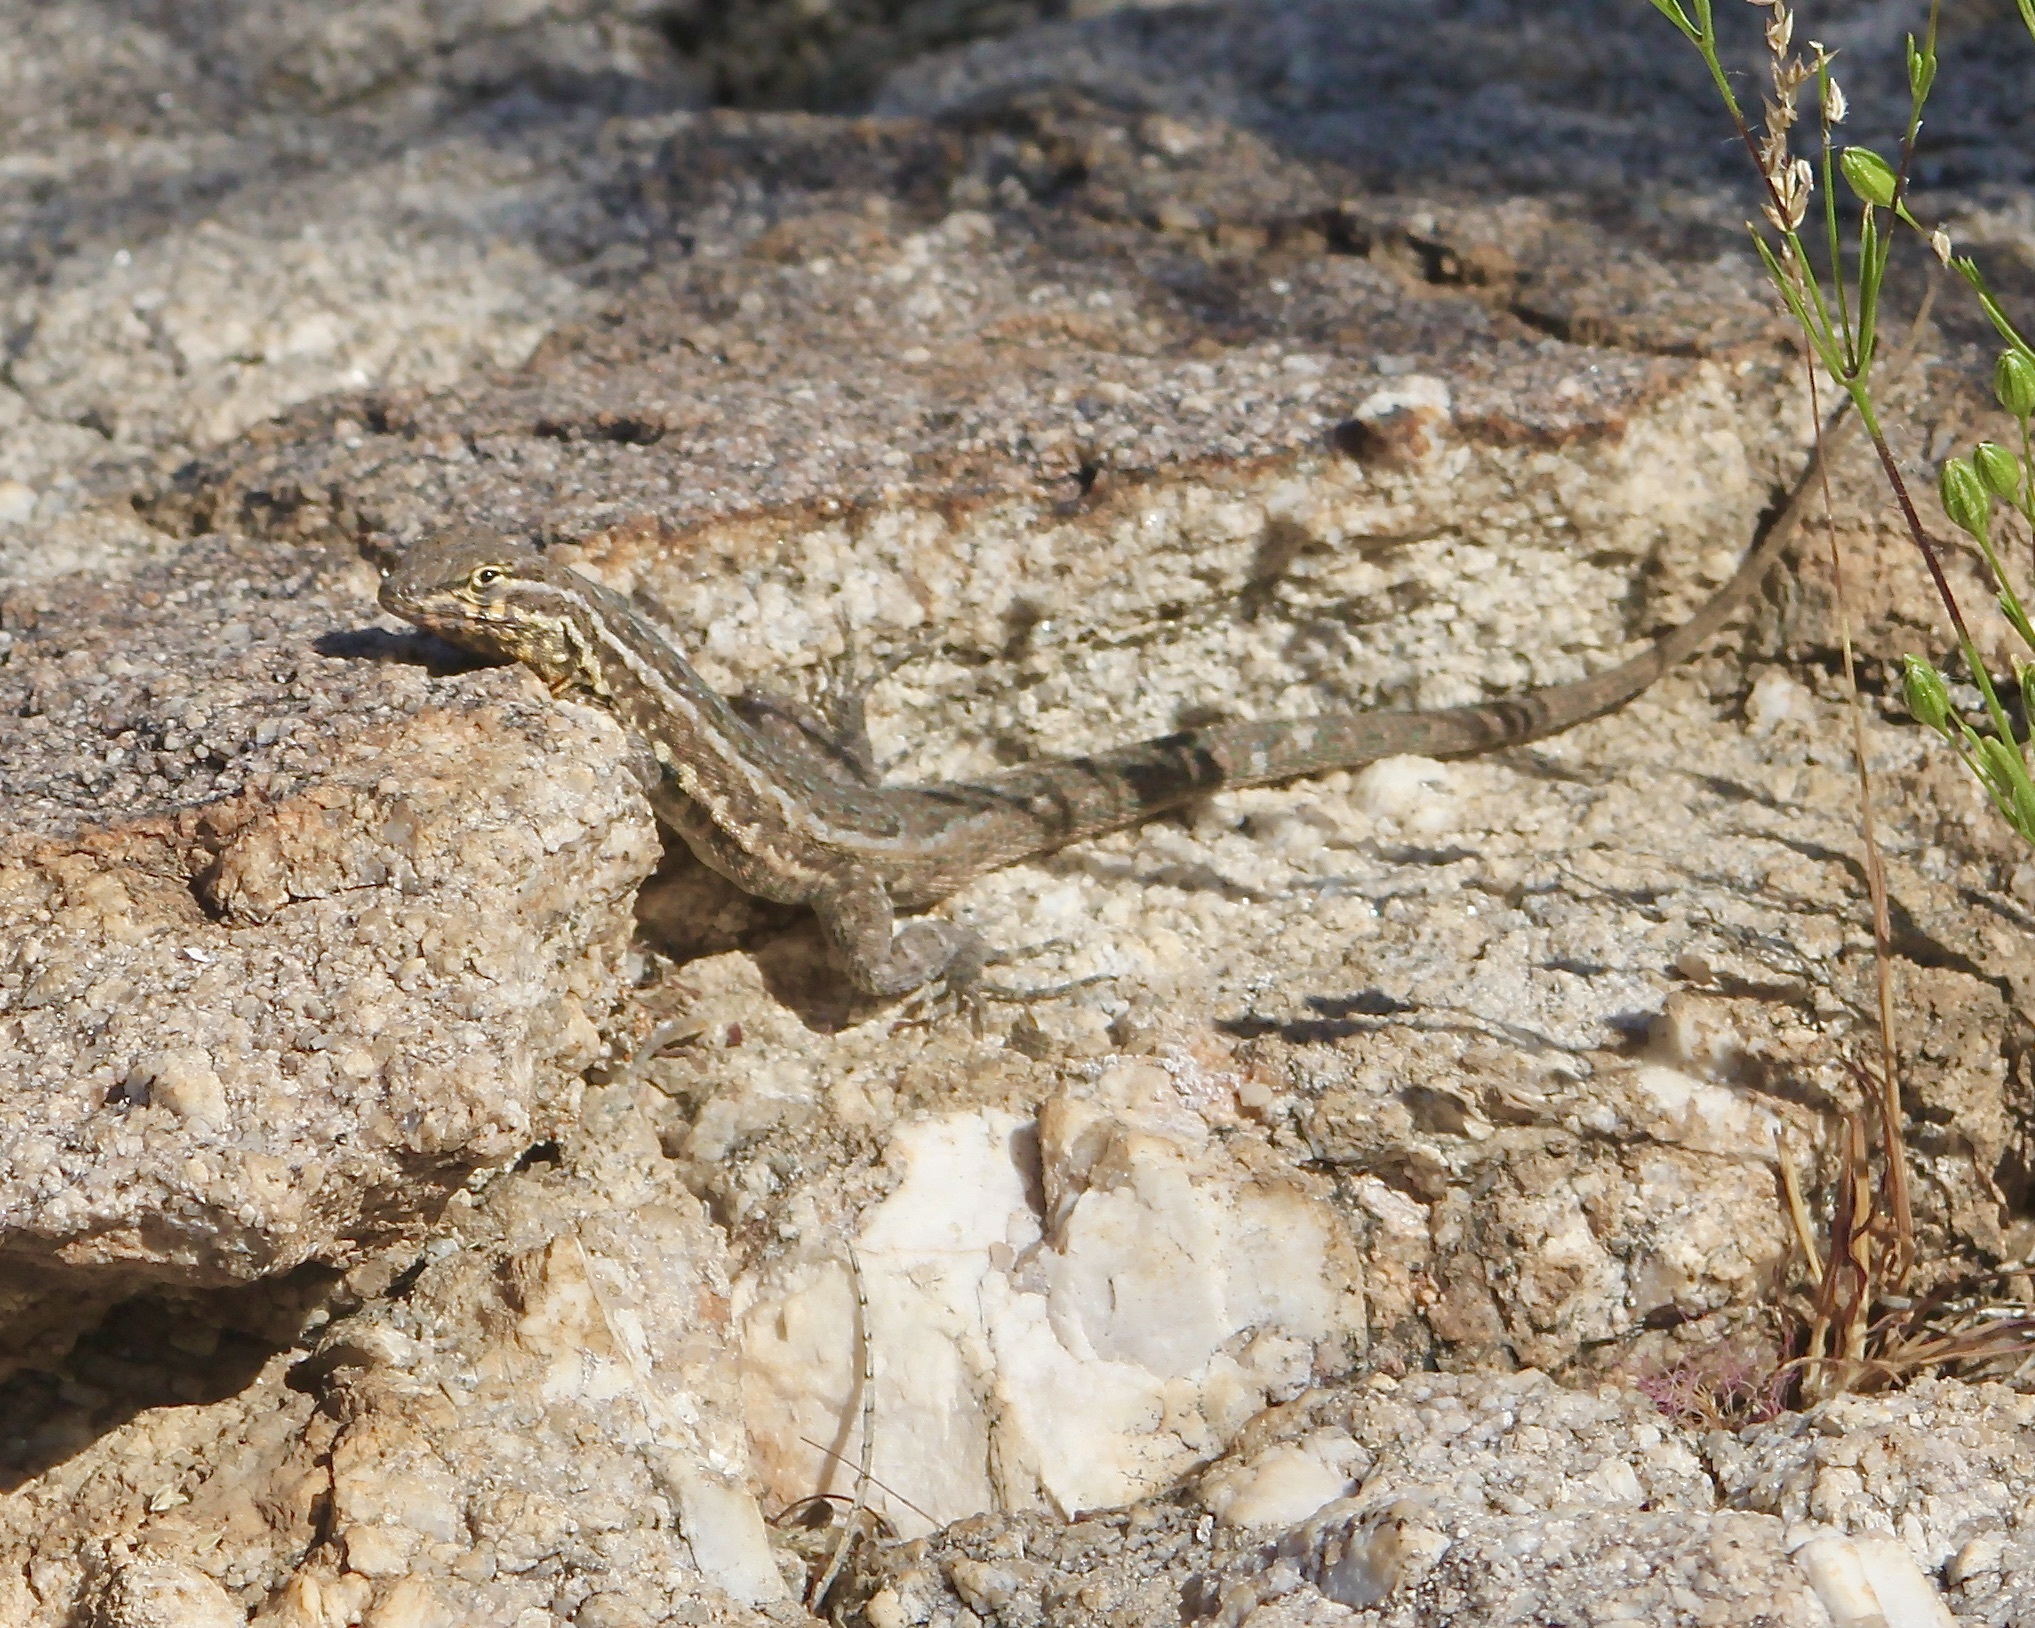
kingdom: Animalia
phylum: Chordata
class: Squamata
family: Phrynosomatidae
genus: Uta
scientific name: Uta stansburiana
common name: Side-blotched lizard
